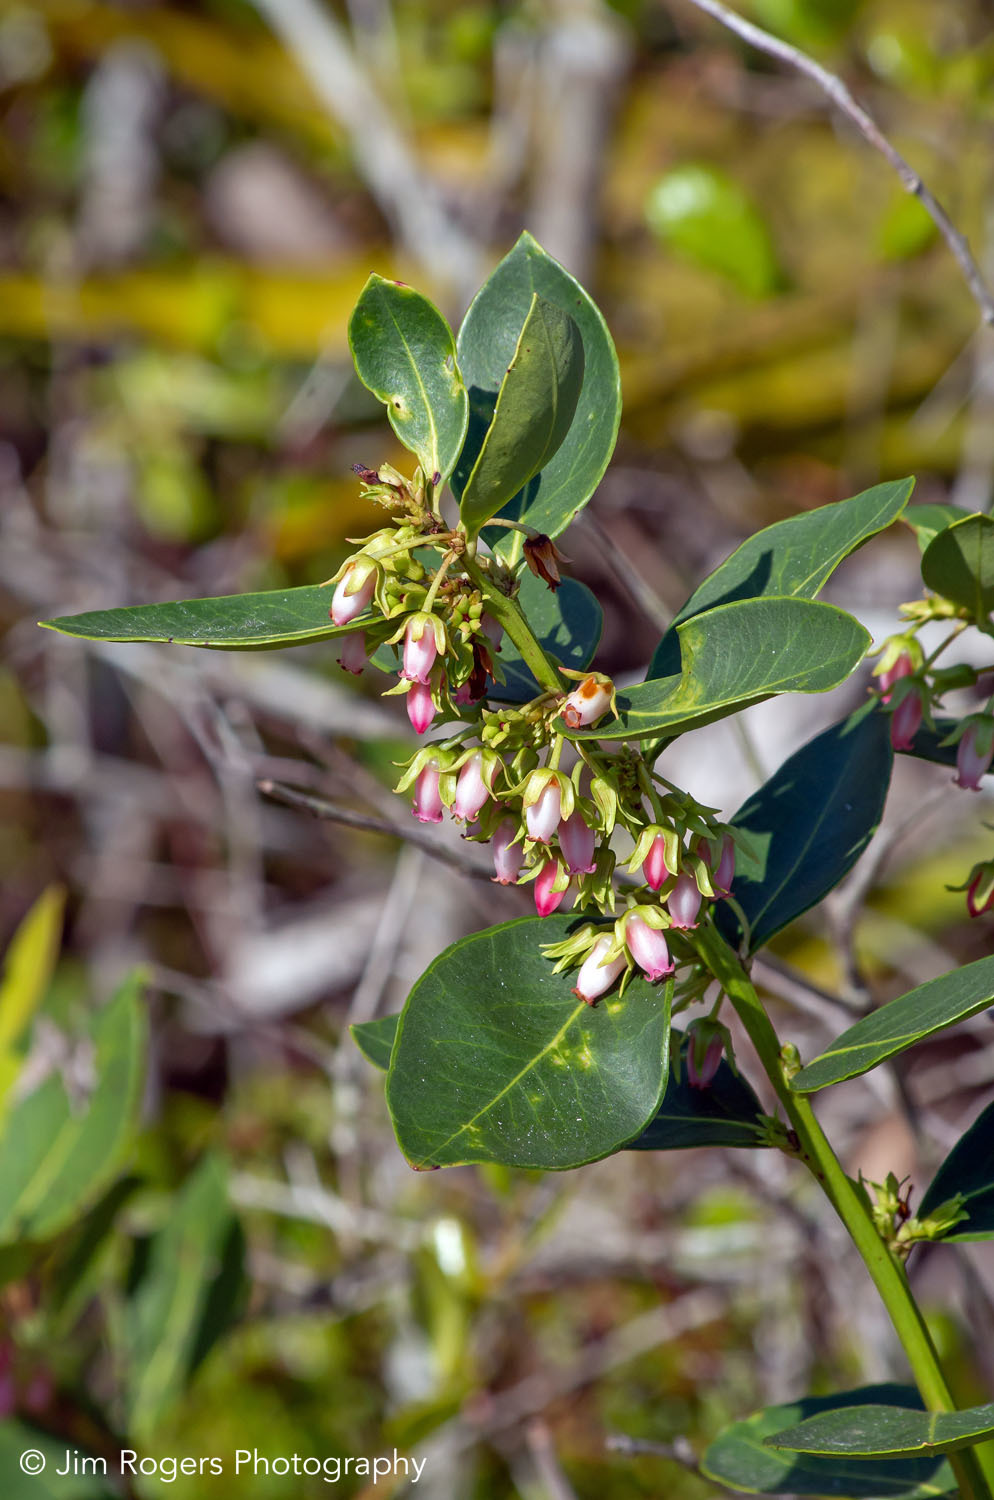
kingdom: Plantae
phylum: Tracheophyta
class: Magnoliopsida
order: Ericales
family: Ericaceae
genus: Lyonia
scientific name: Lyonia lucida
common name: Fetterbush
